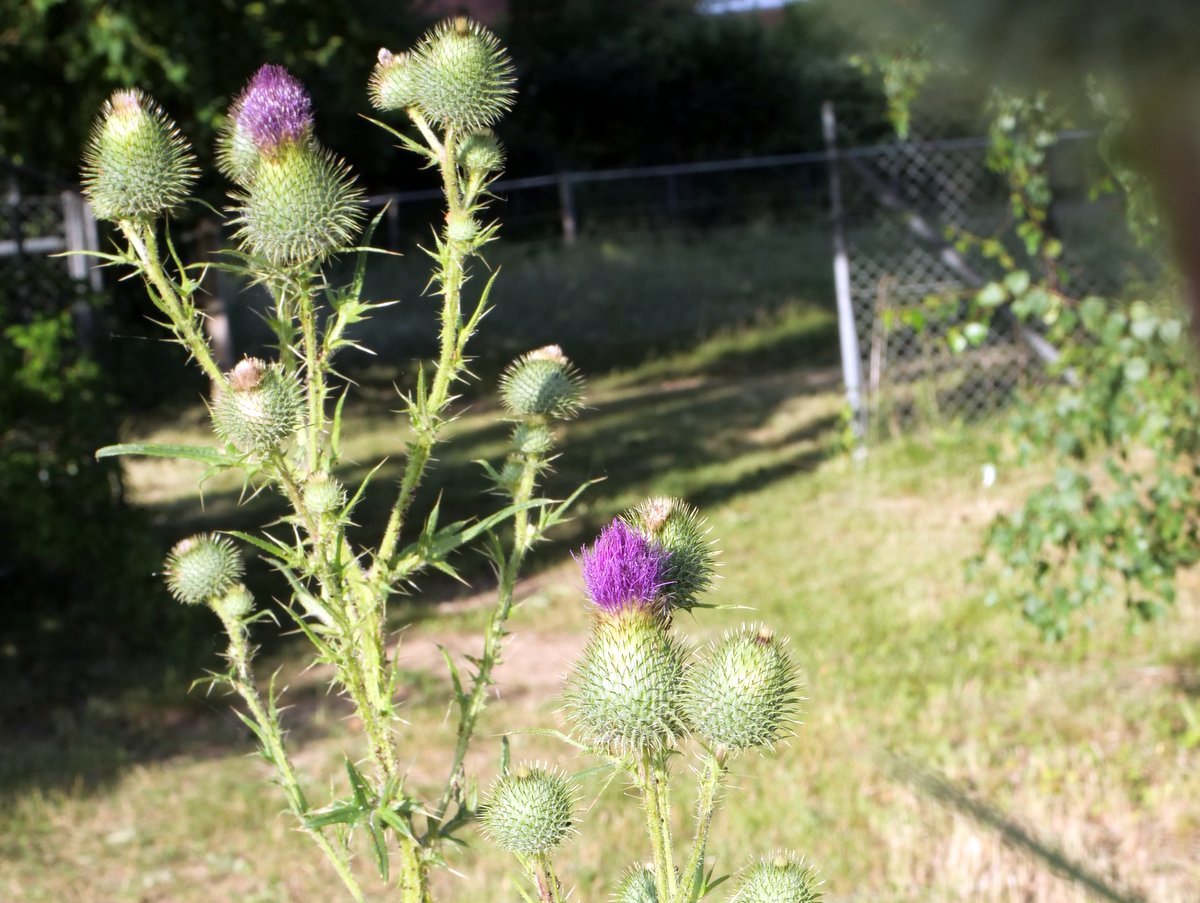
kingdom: Plantae
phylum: Tracheophyta
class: Magnoliopsida
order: Asterales
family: Asteraceae
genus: Cirsium
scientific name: Cirsium vulgare
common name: Bull thistle
